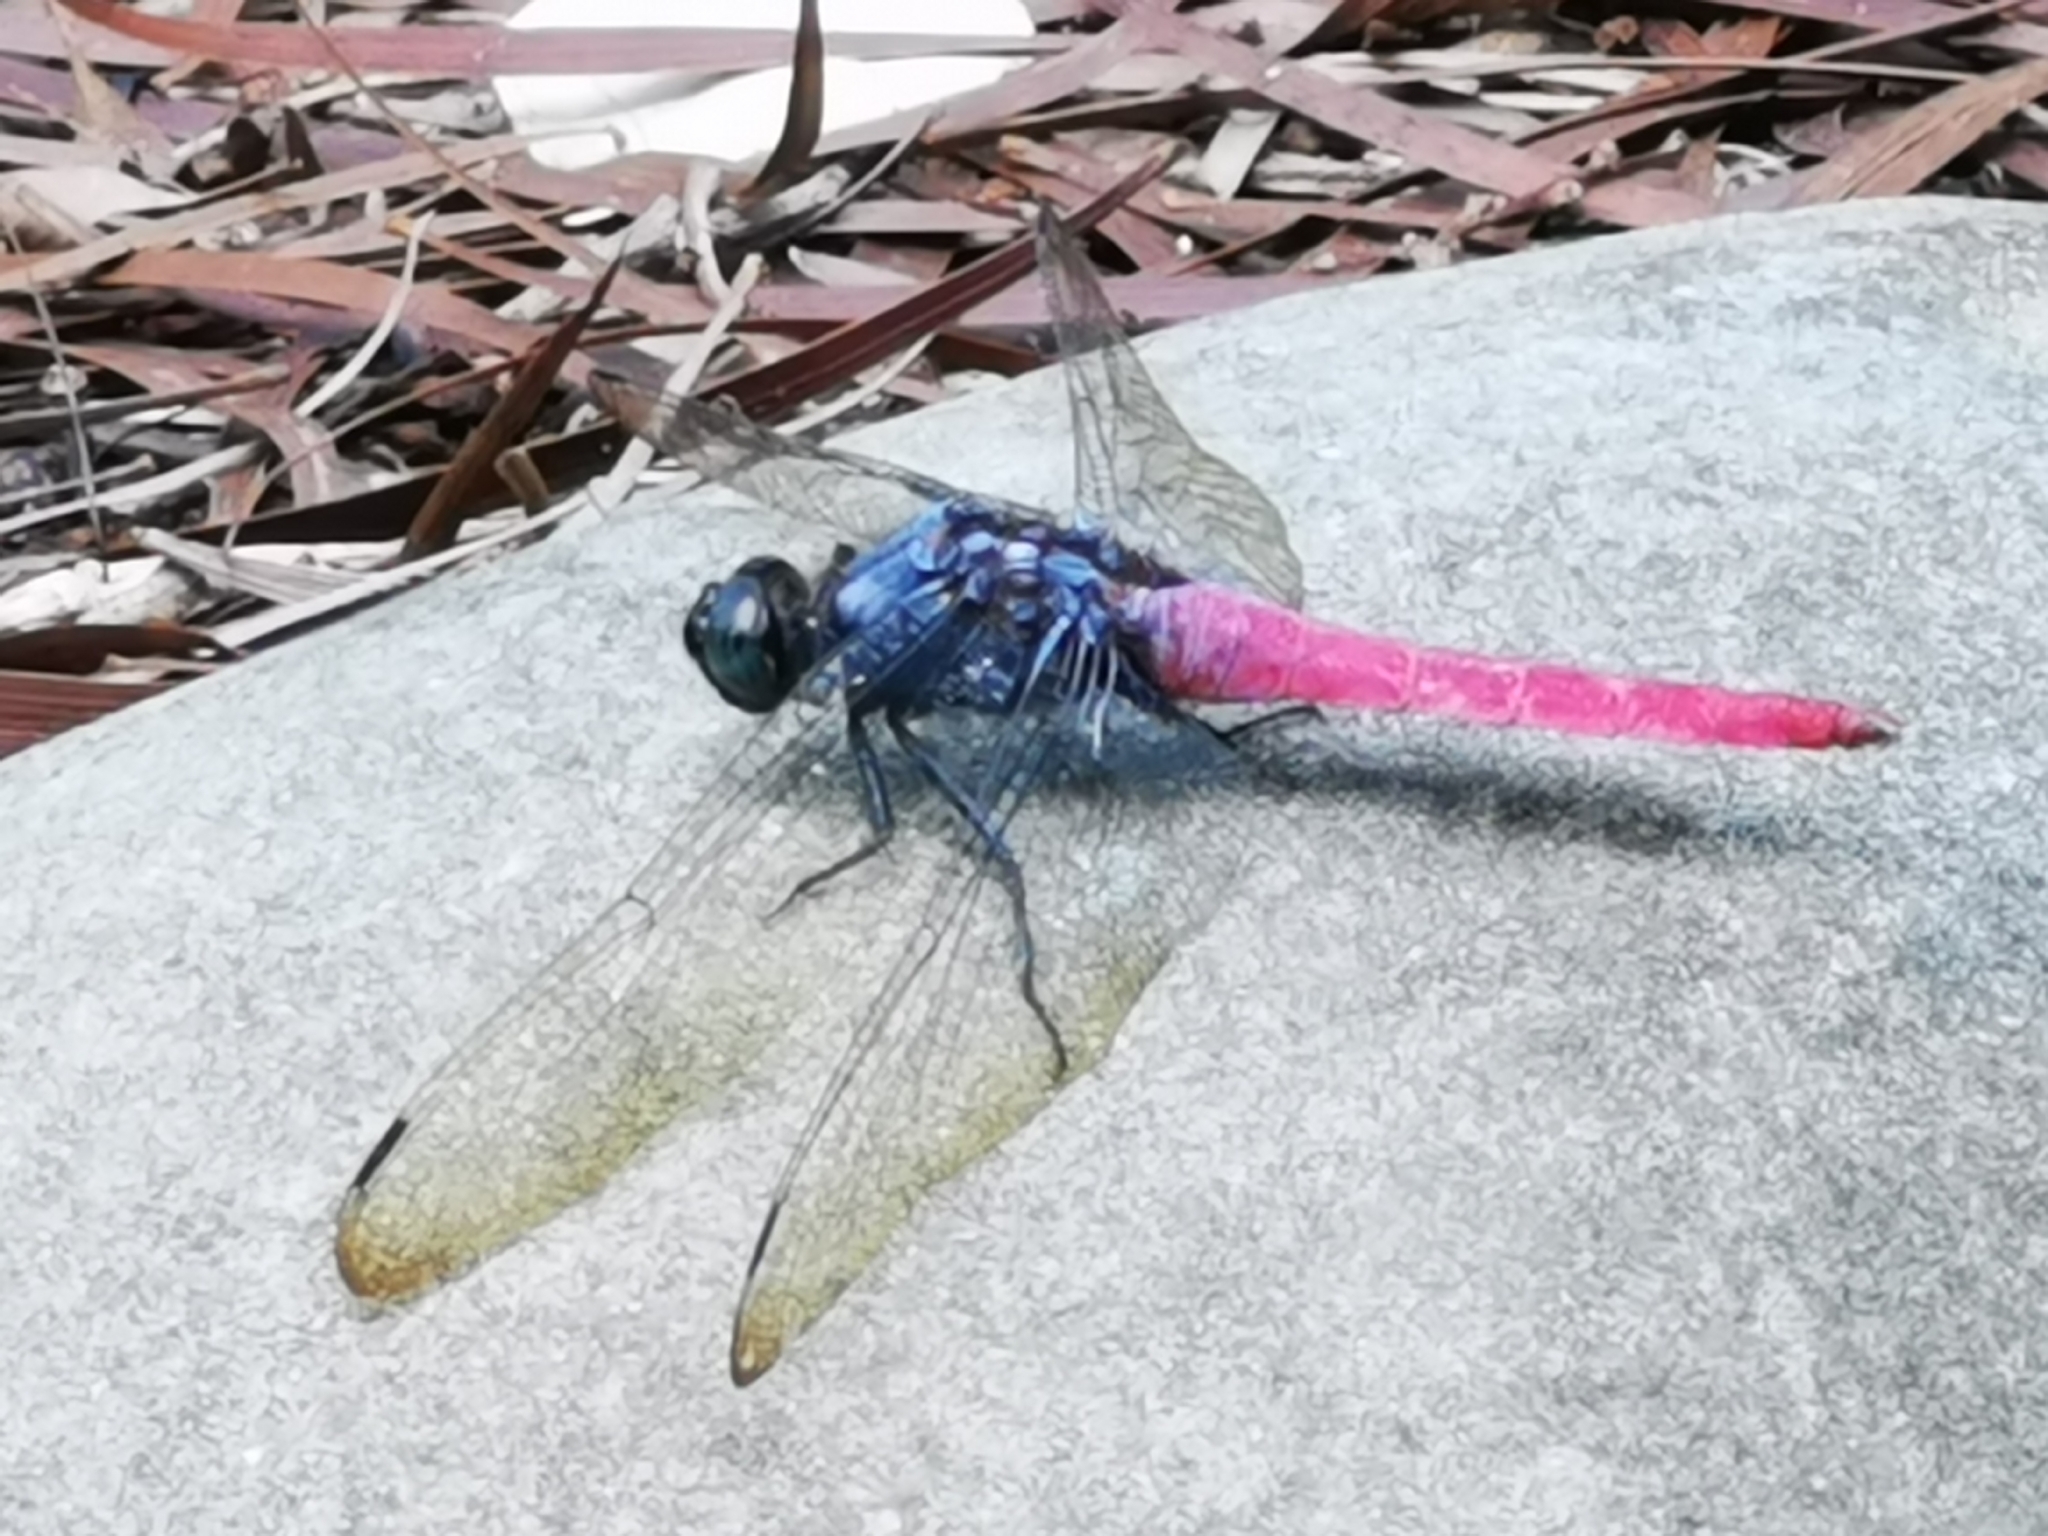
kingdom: Animalia
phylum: Arthropoda
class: Insecta
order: Odonata
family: Libellulidae
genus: Orthetrum
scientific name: Orthetrum pruinosum
